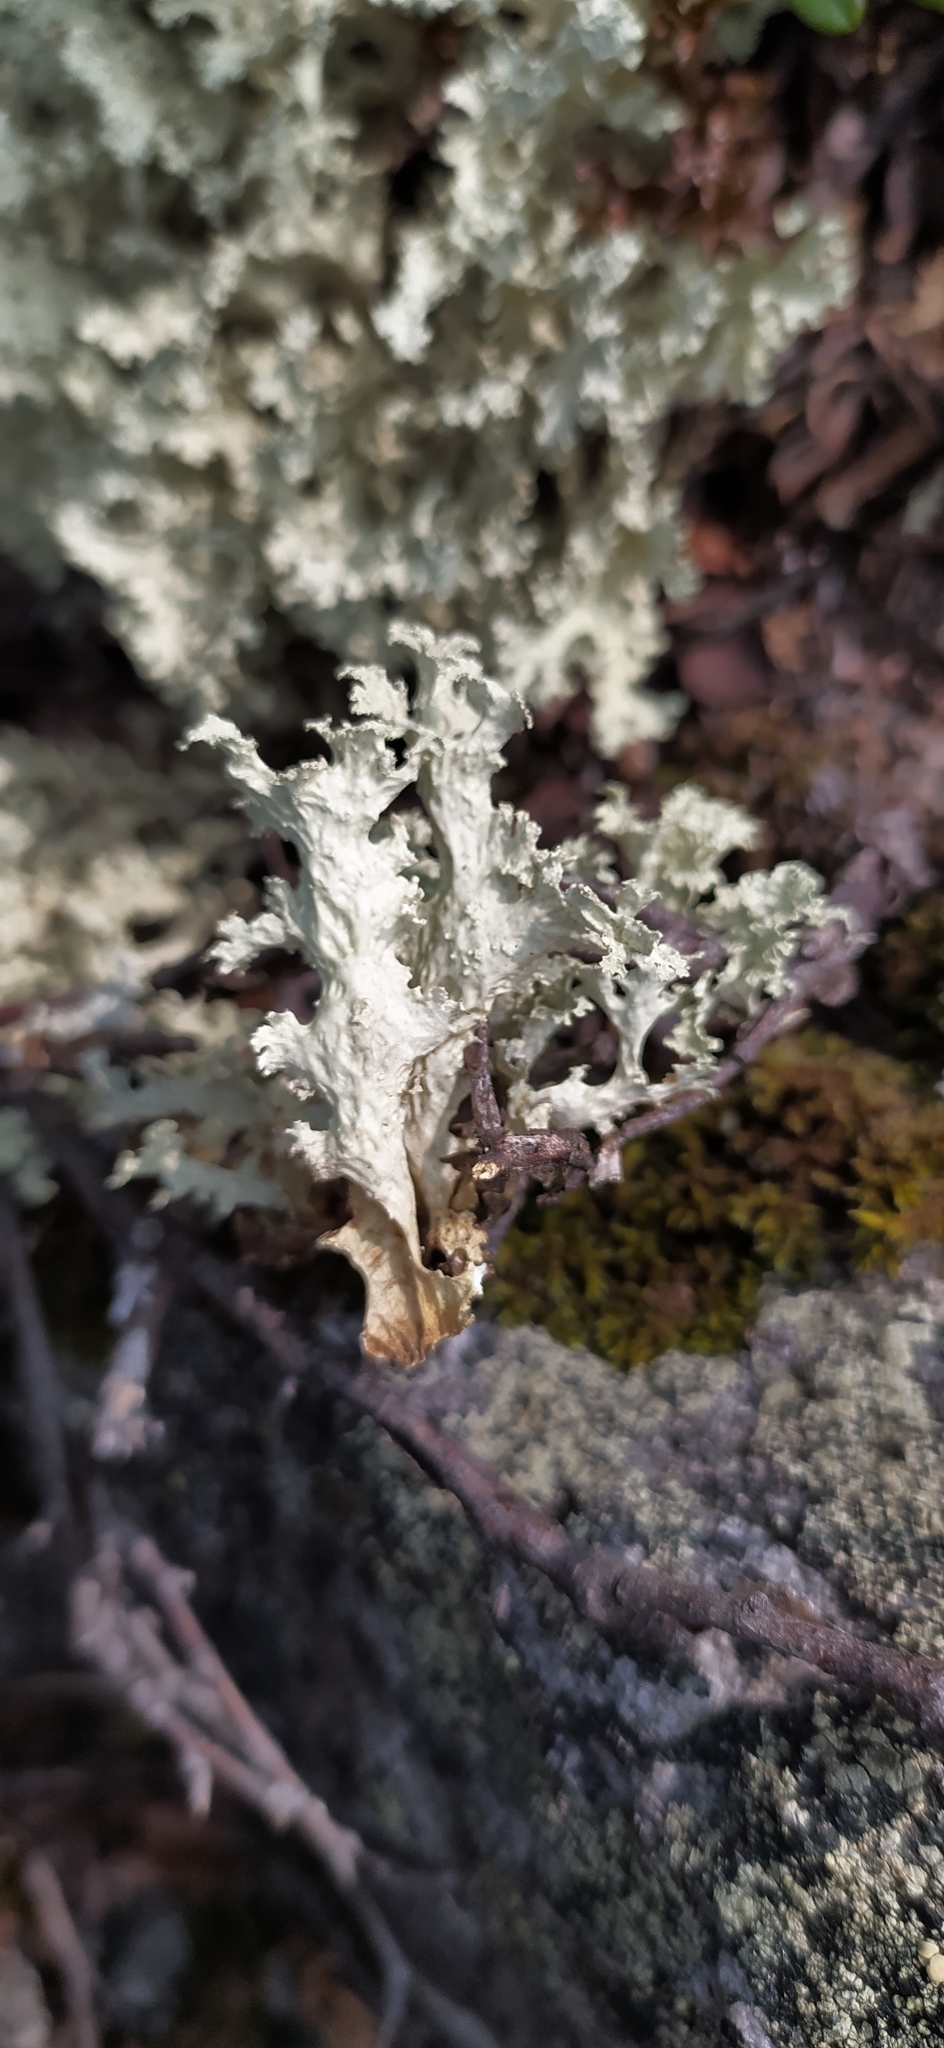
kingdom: Fungi
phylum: Ascomycota
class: Lecanoromycetes
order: Lecanorales
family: Parmeliaceae
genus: Nephromopsis
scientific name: Nephromopsis nivalis
